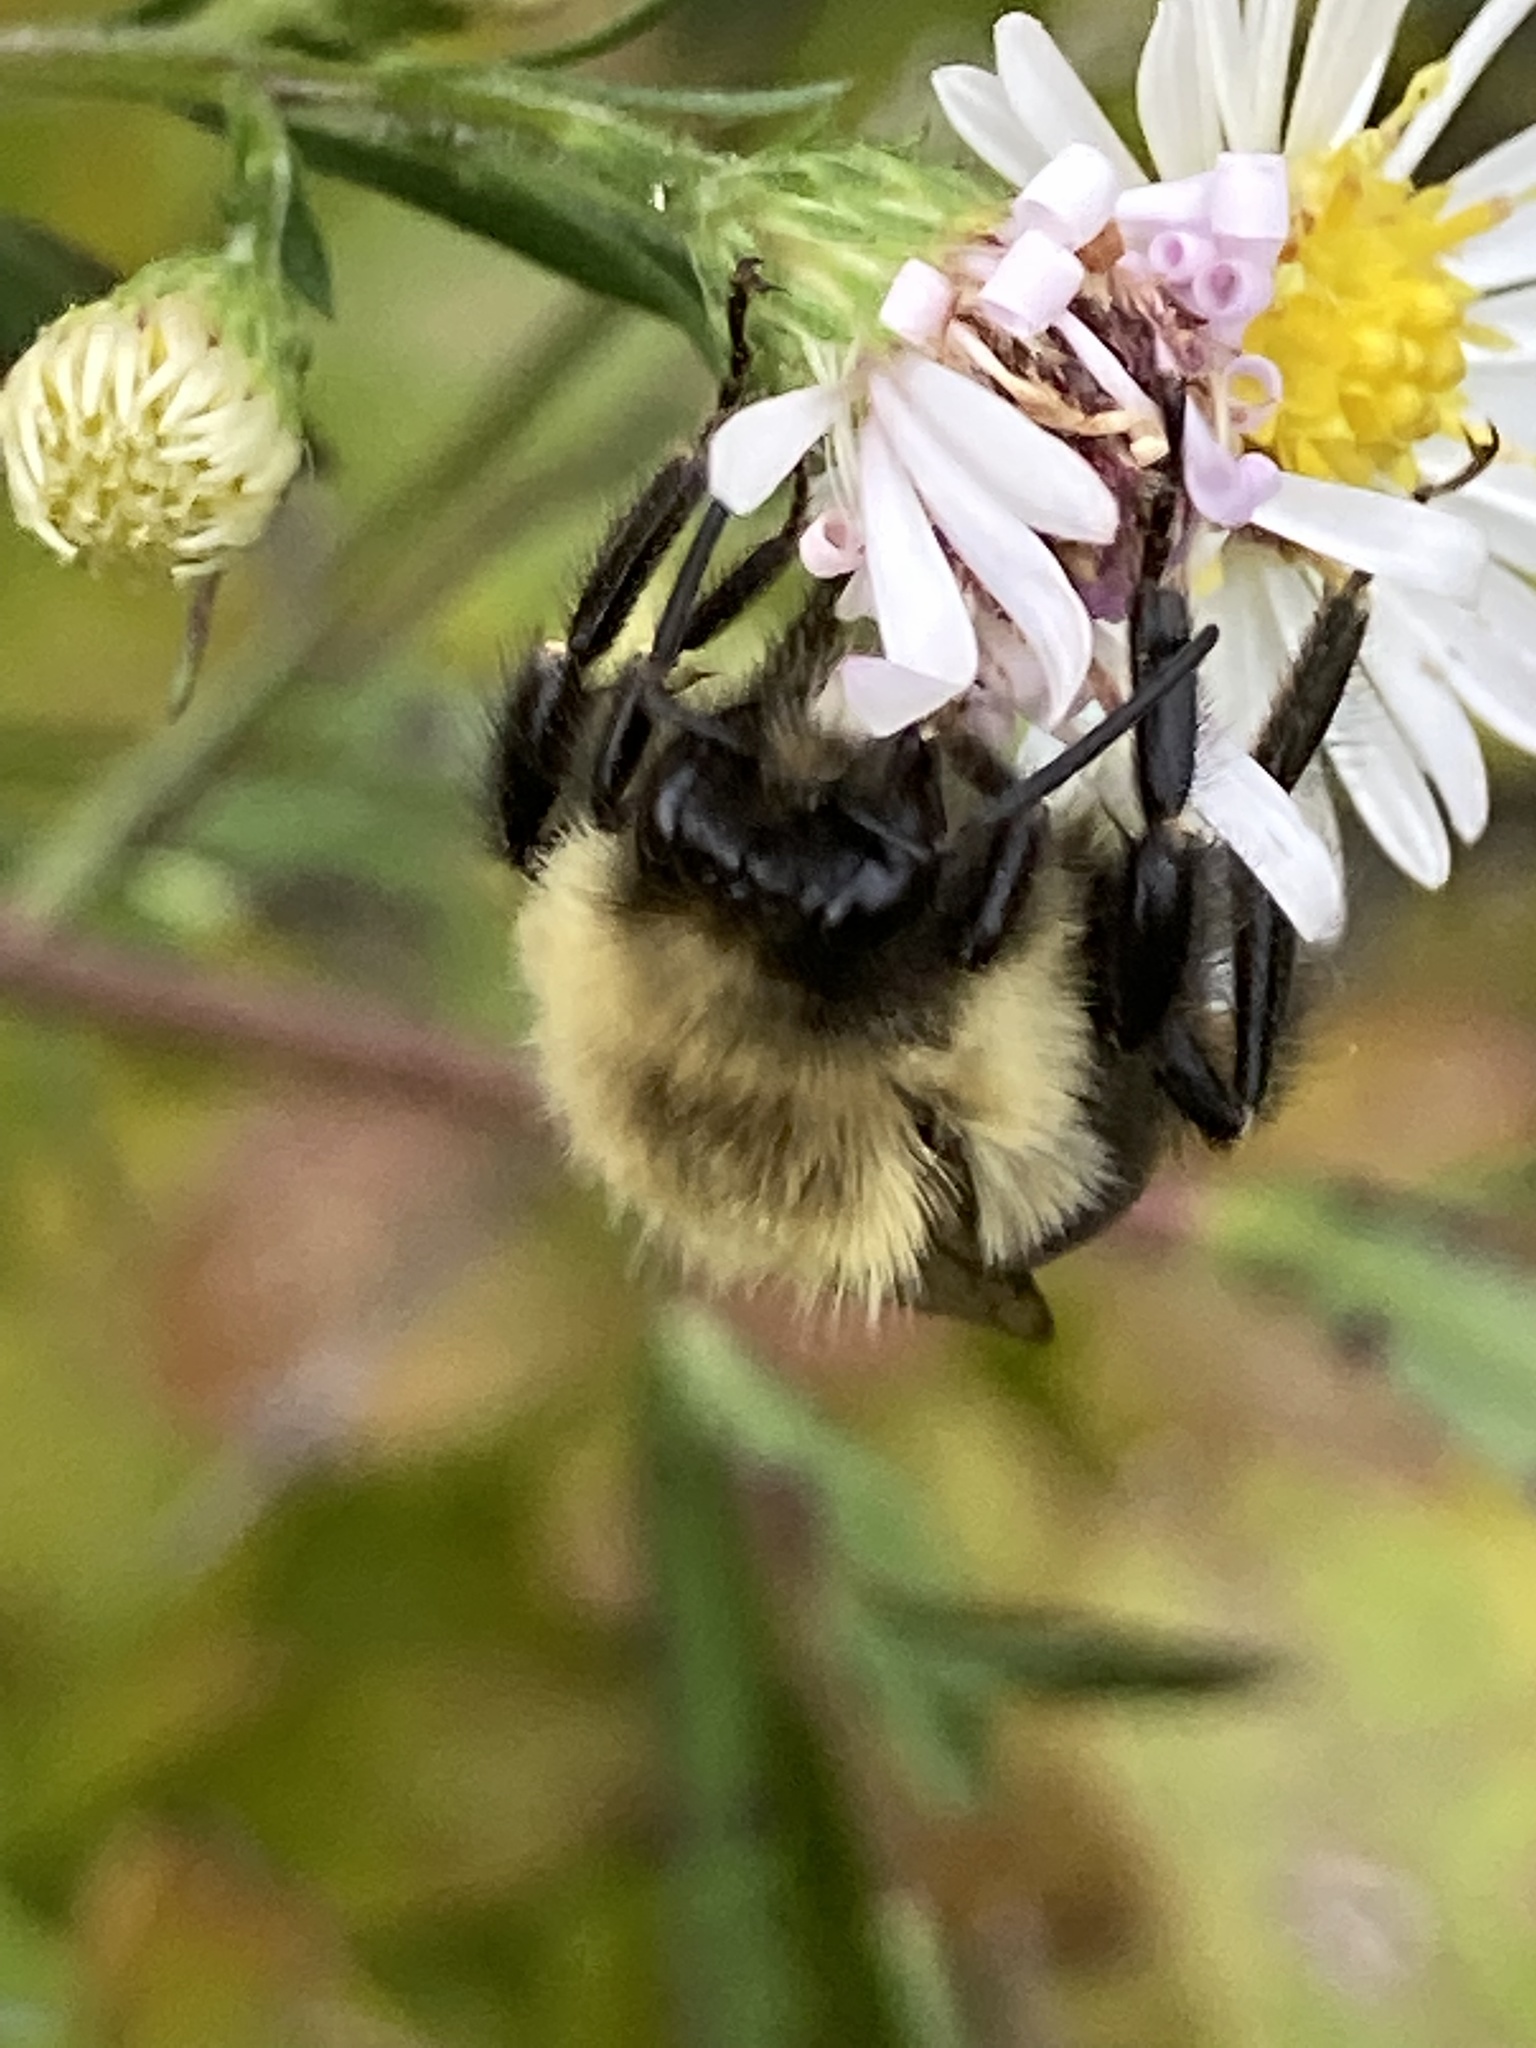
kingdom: Animalia
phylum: Arthropoda
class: Insecta
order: Hymenoptera
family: Apidae
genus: Bombus
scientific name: Bombus impatiens
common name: Common eastern bumble bee
